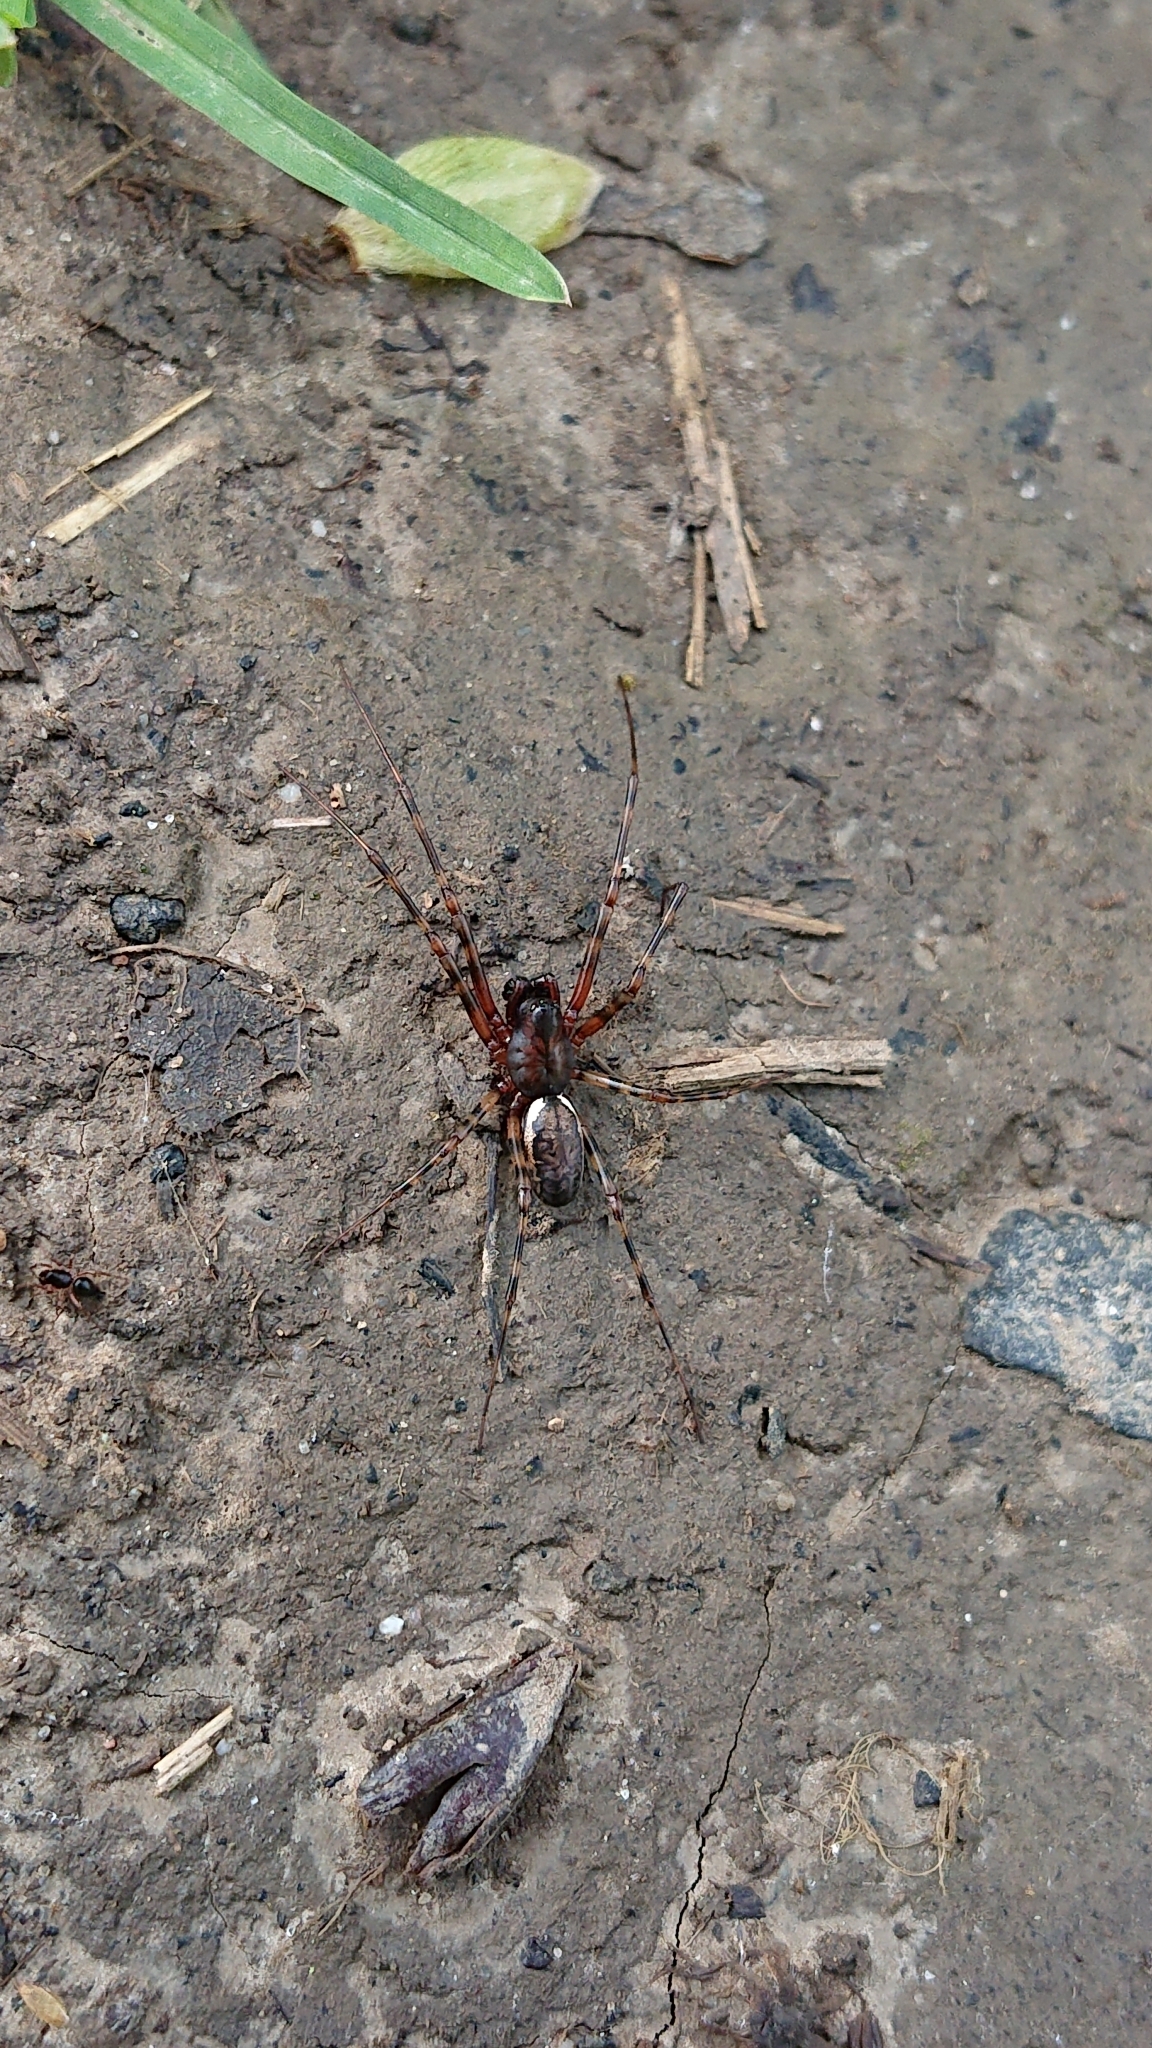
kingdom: Animalia
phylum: Arthropoda
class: Arachnida
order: Araneae
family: Linyphiidae
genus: Neriene
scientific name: Neriene montana
